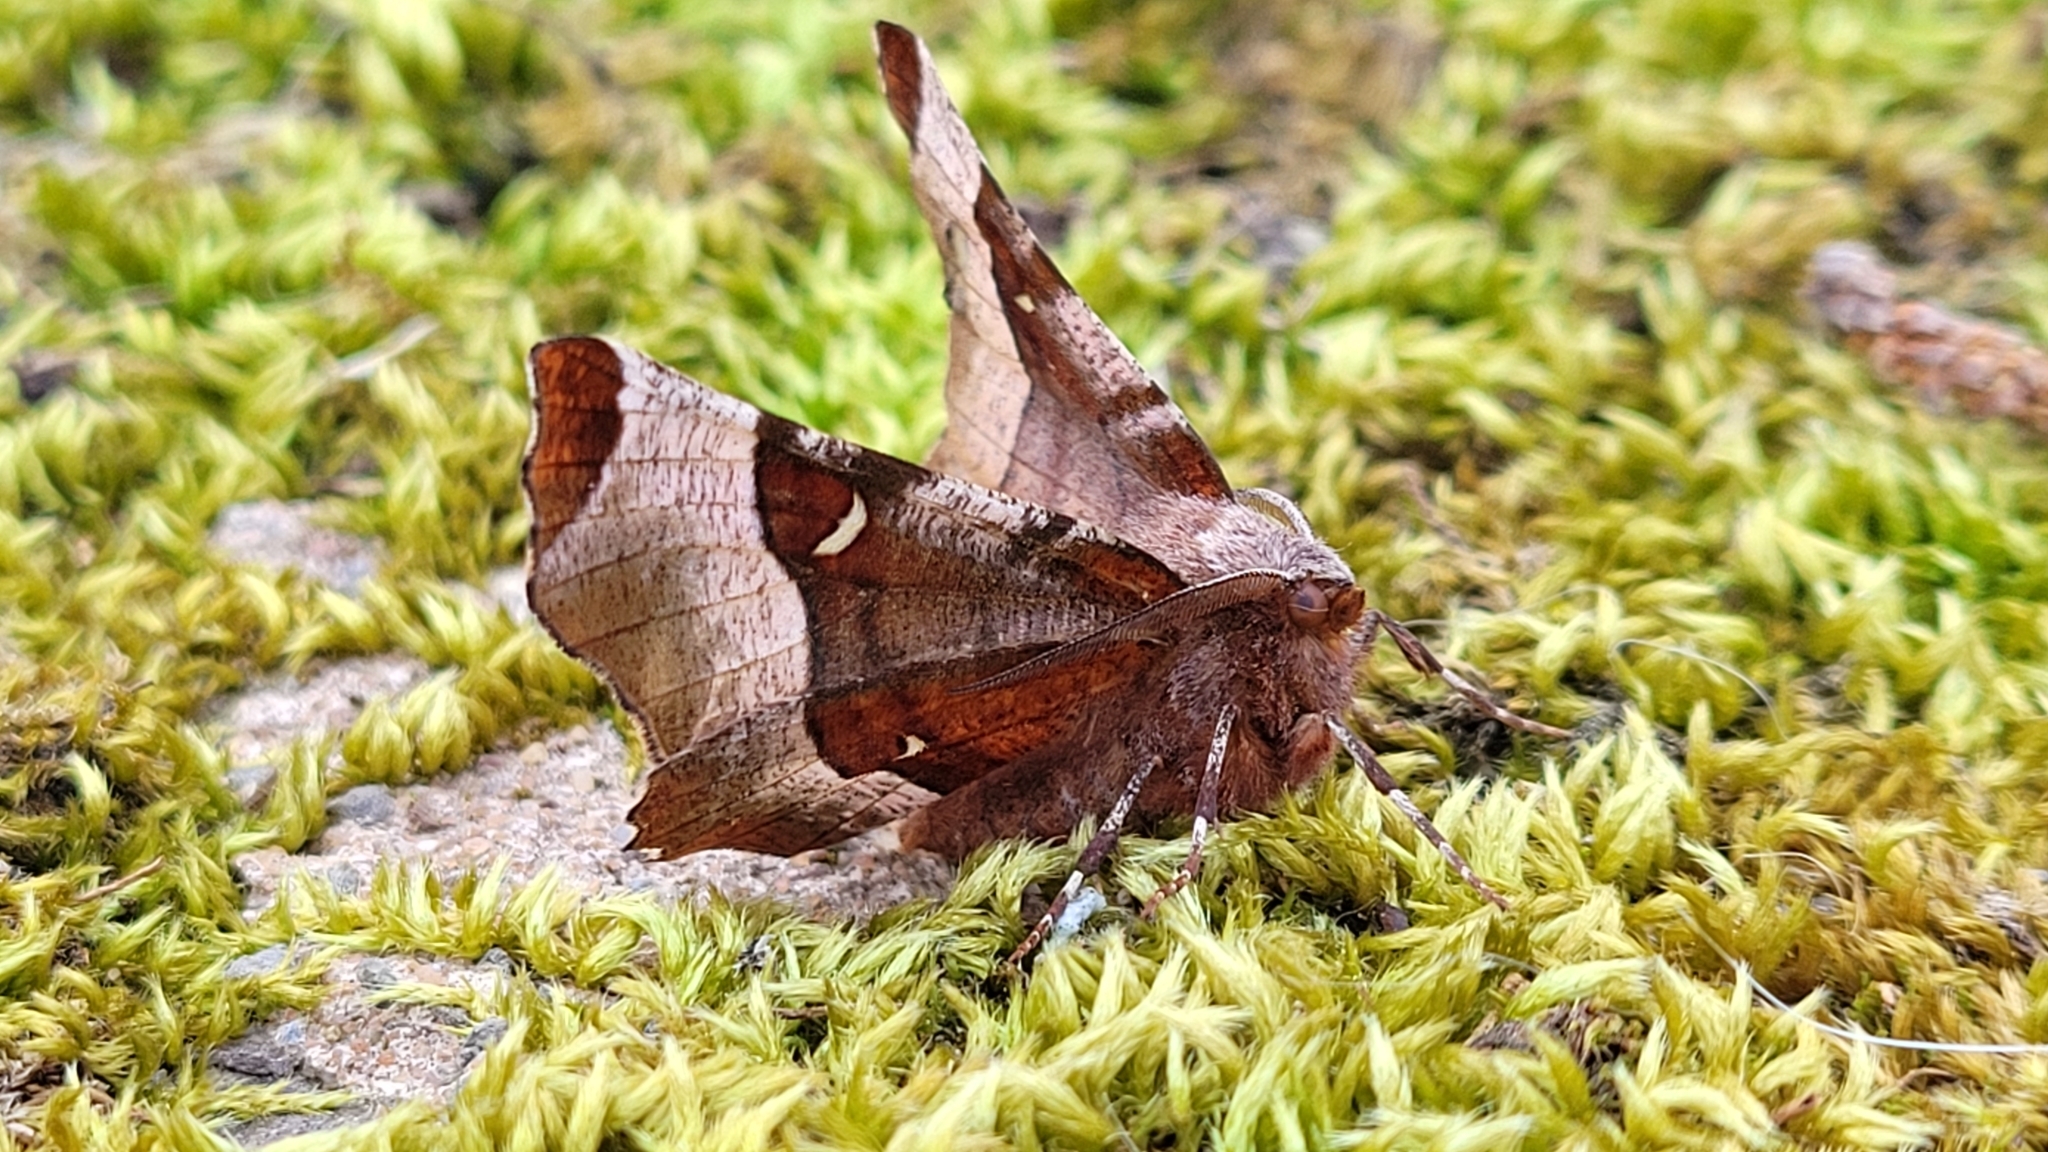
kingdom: Animalia
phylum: Arthropoda
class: Insecta
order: Lepidoptera
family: Geometridae
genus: Selenia
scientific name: Selenia tetralunaria
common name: Purple thorn
